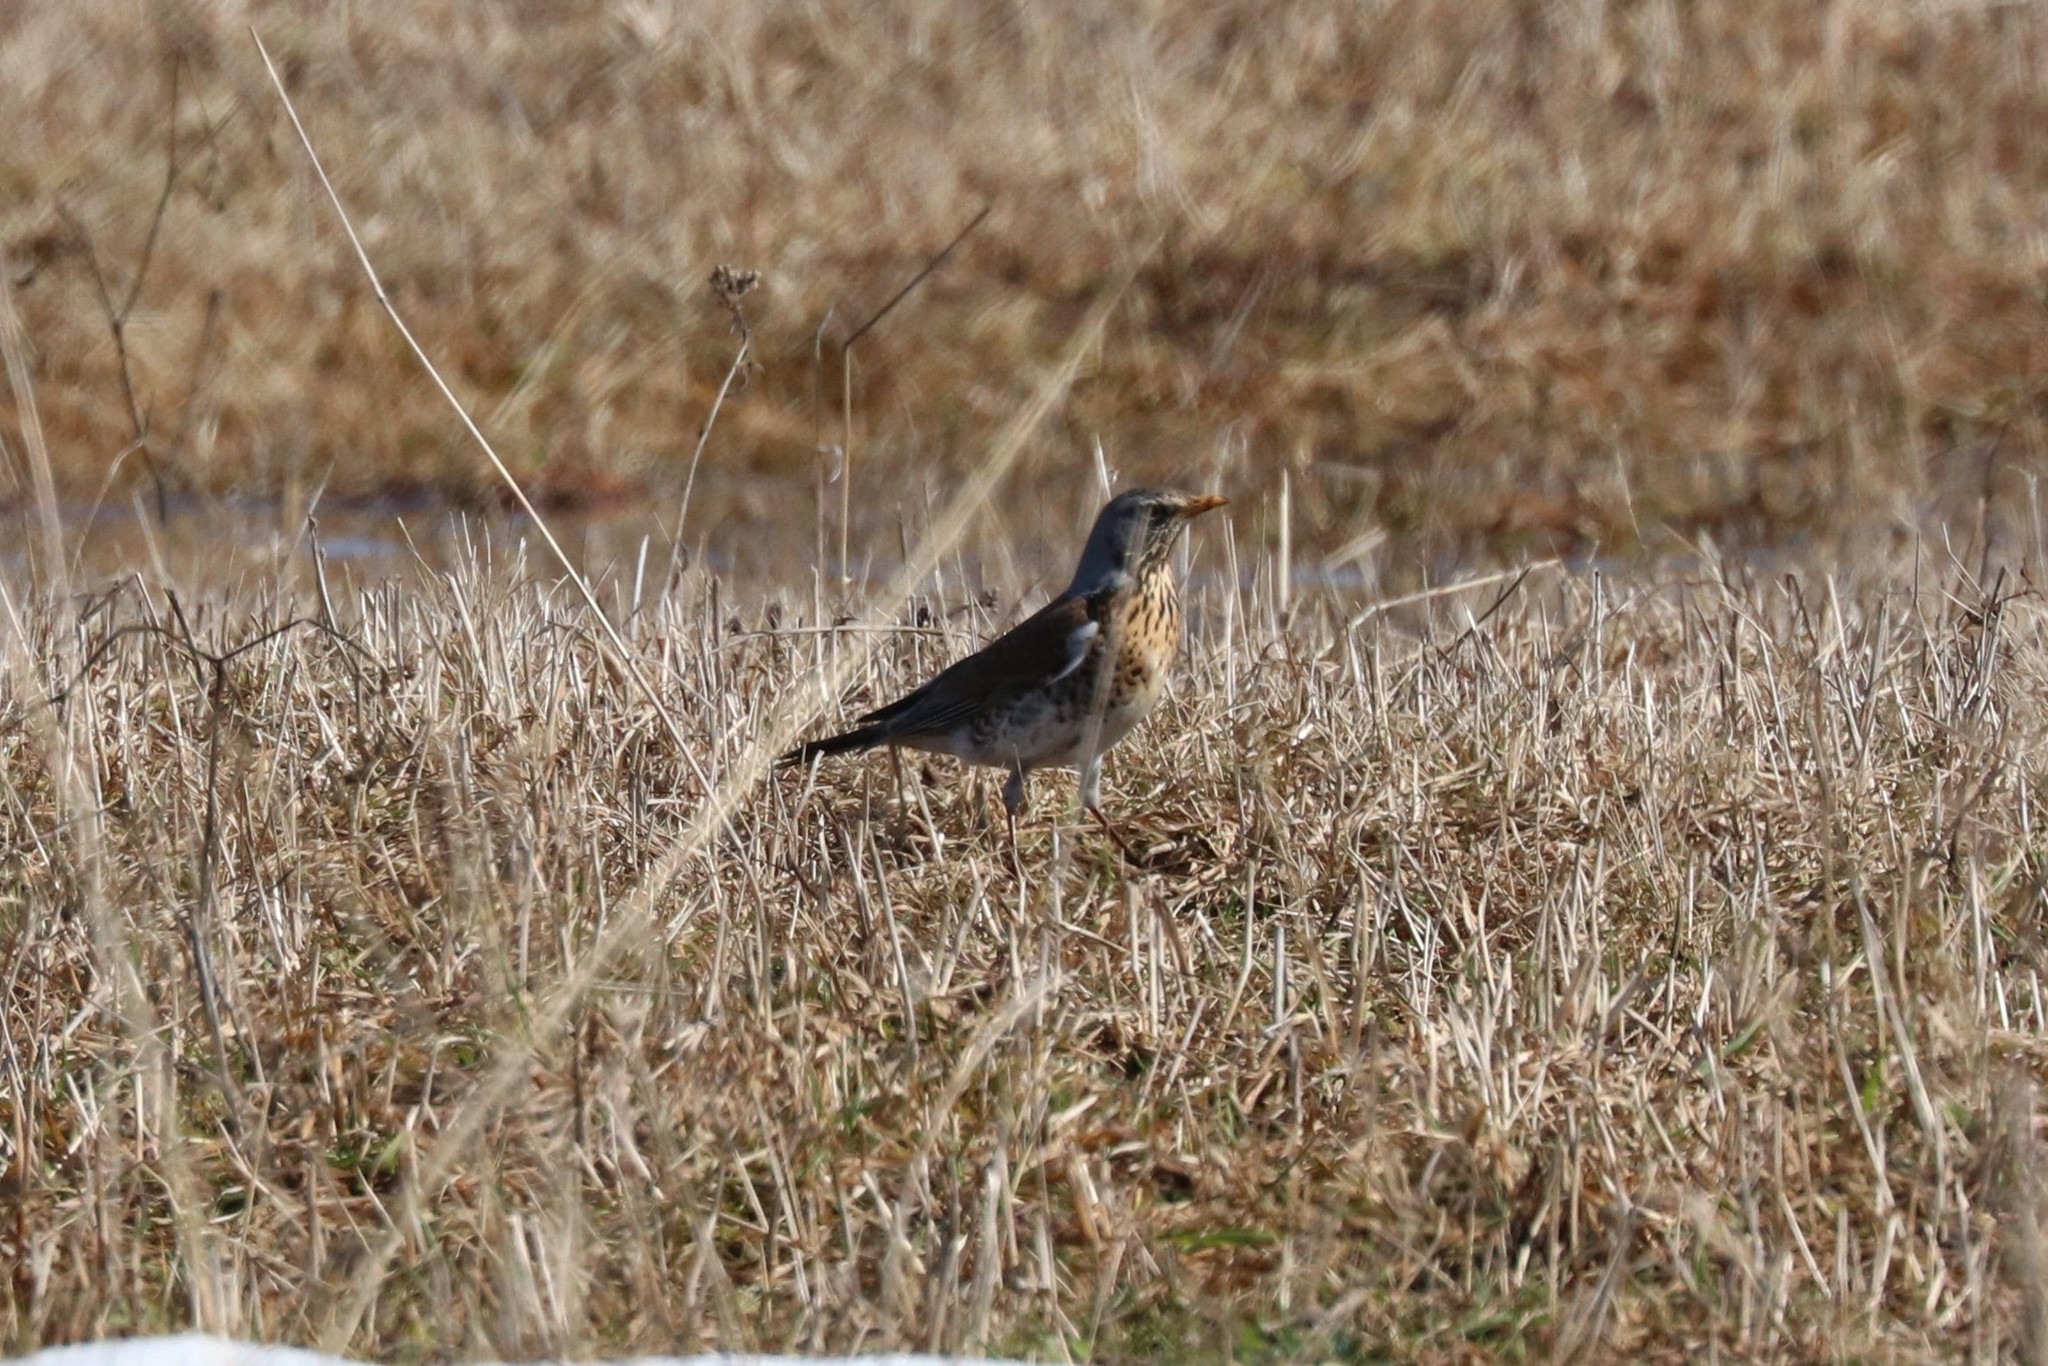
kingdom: Animalia
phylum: Chordata
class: Aves
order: Passeriformes
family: Turdidae
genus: Turdus
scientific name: Turdus pilaris
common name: Fieldfare
